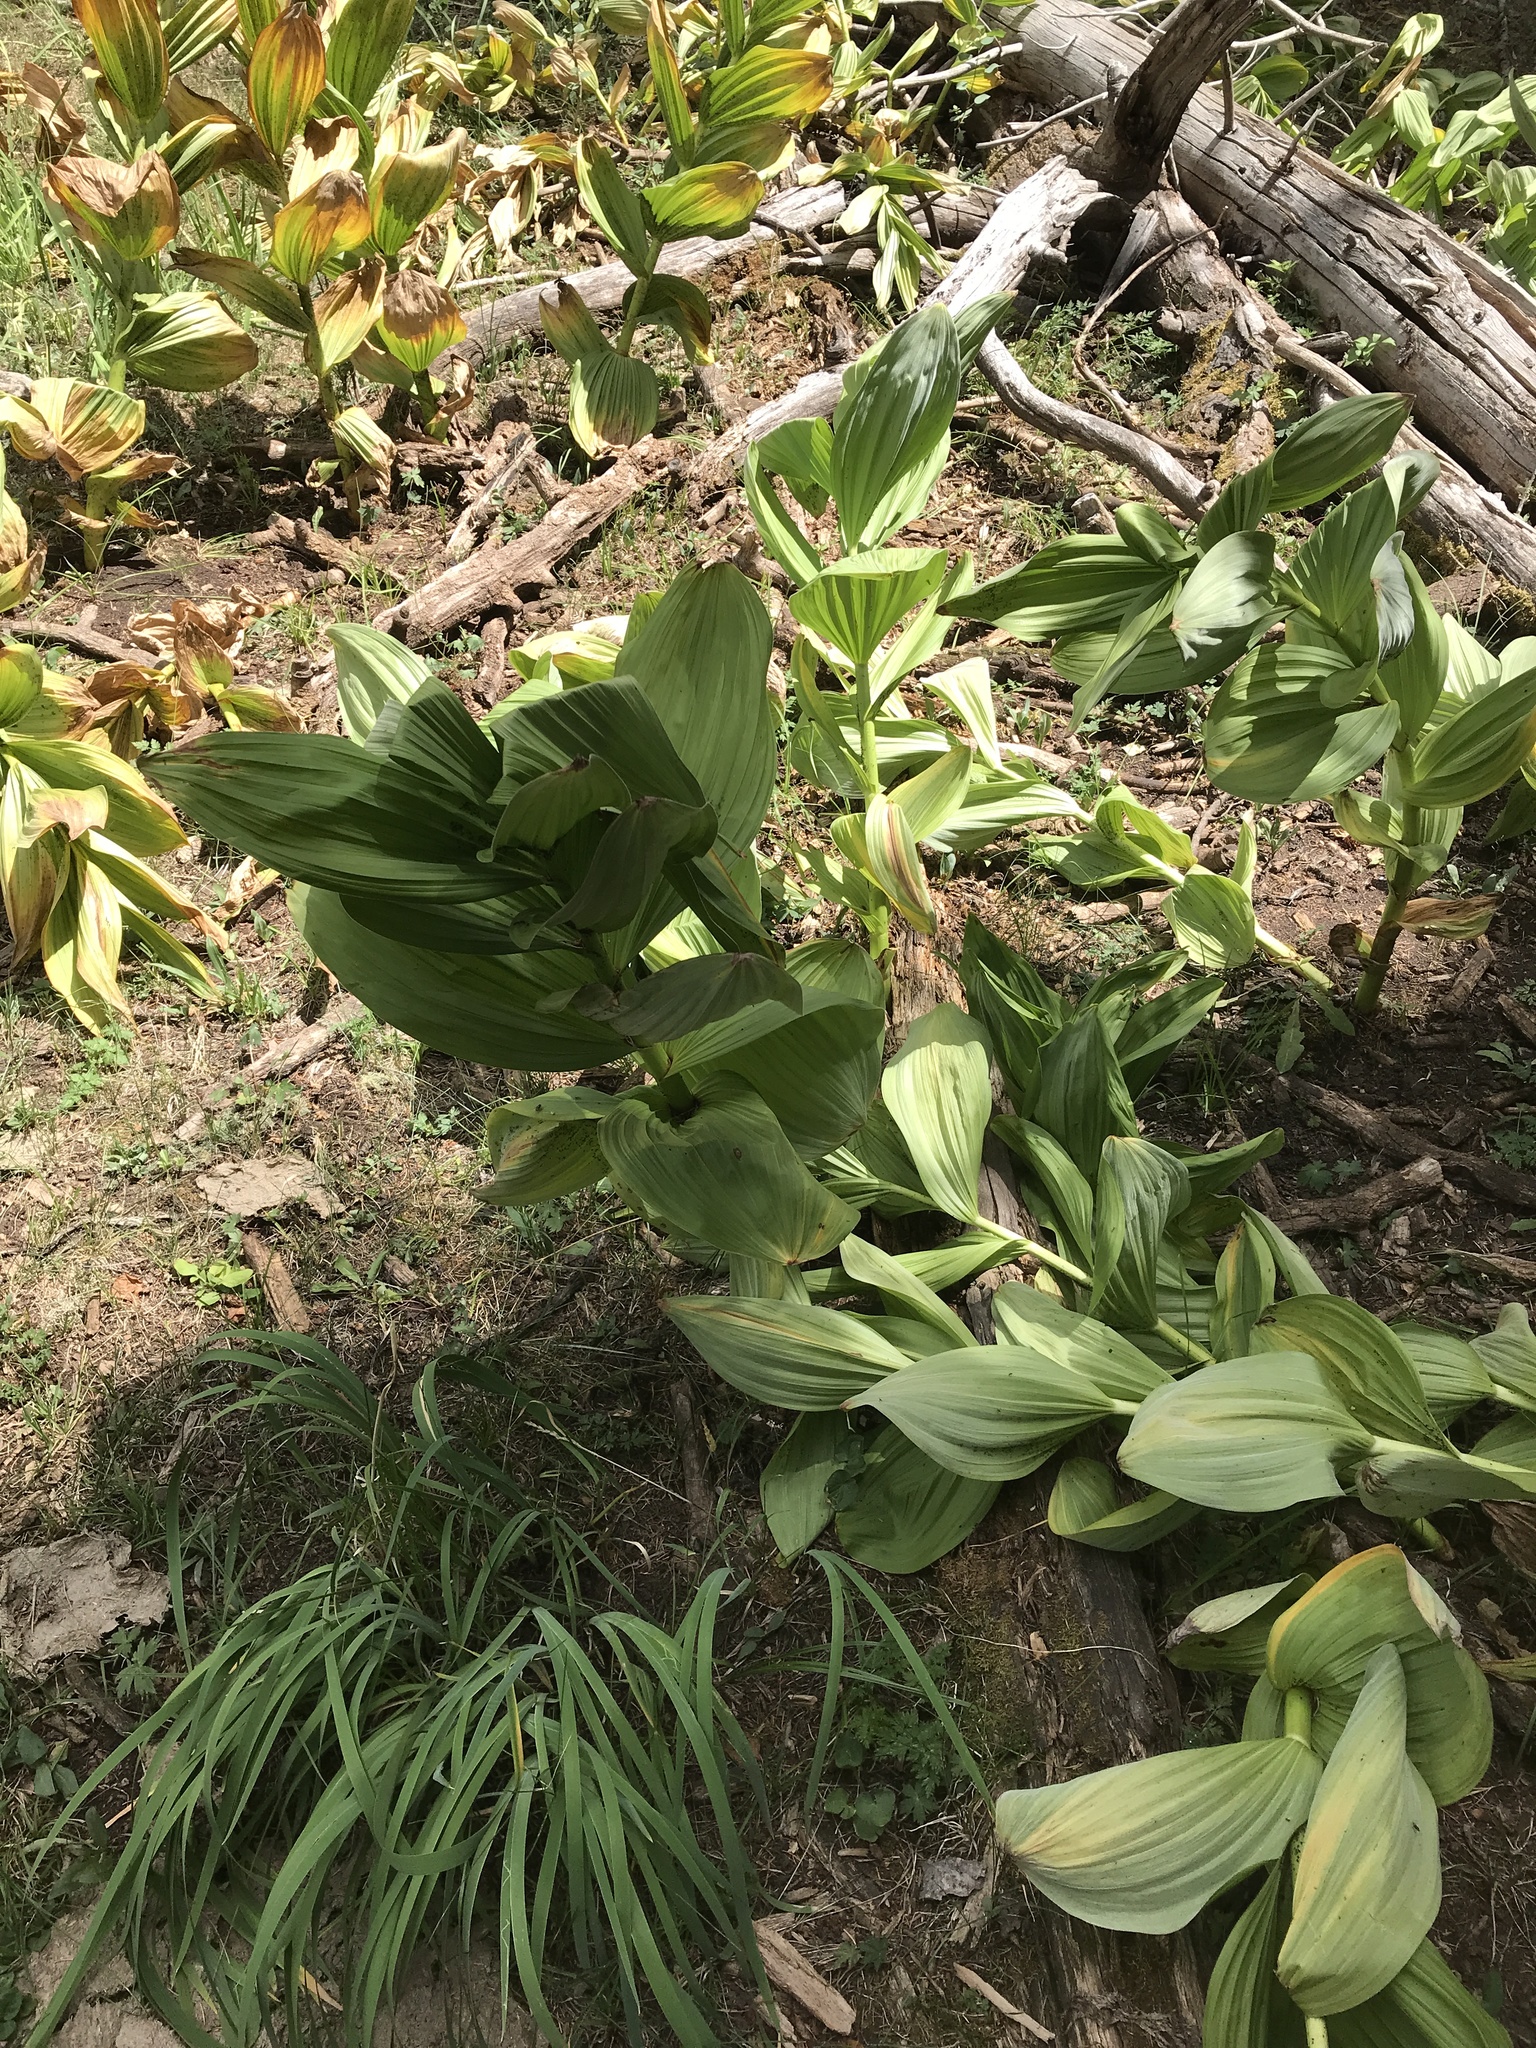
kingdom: Plantae
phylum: Tracheophyta
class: Liliopsida
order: Liliales
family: Melanthiaceae
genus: Veratrum
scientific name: Veratrum californicum
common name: California veratrum
